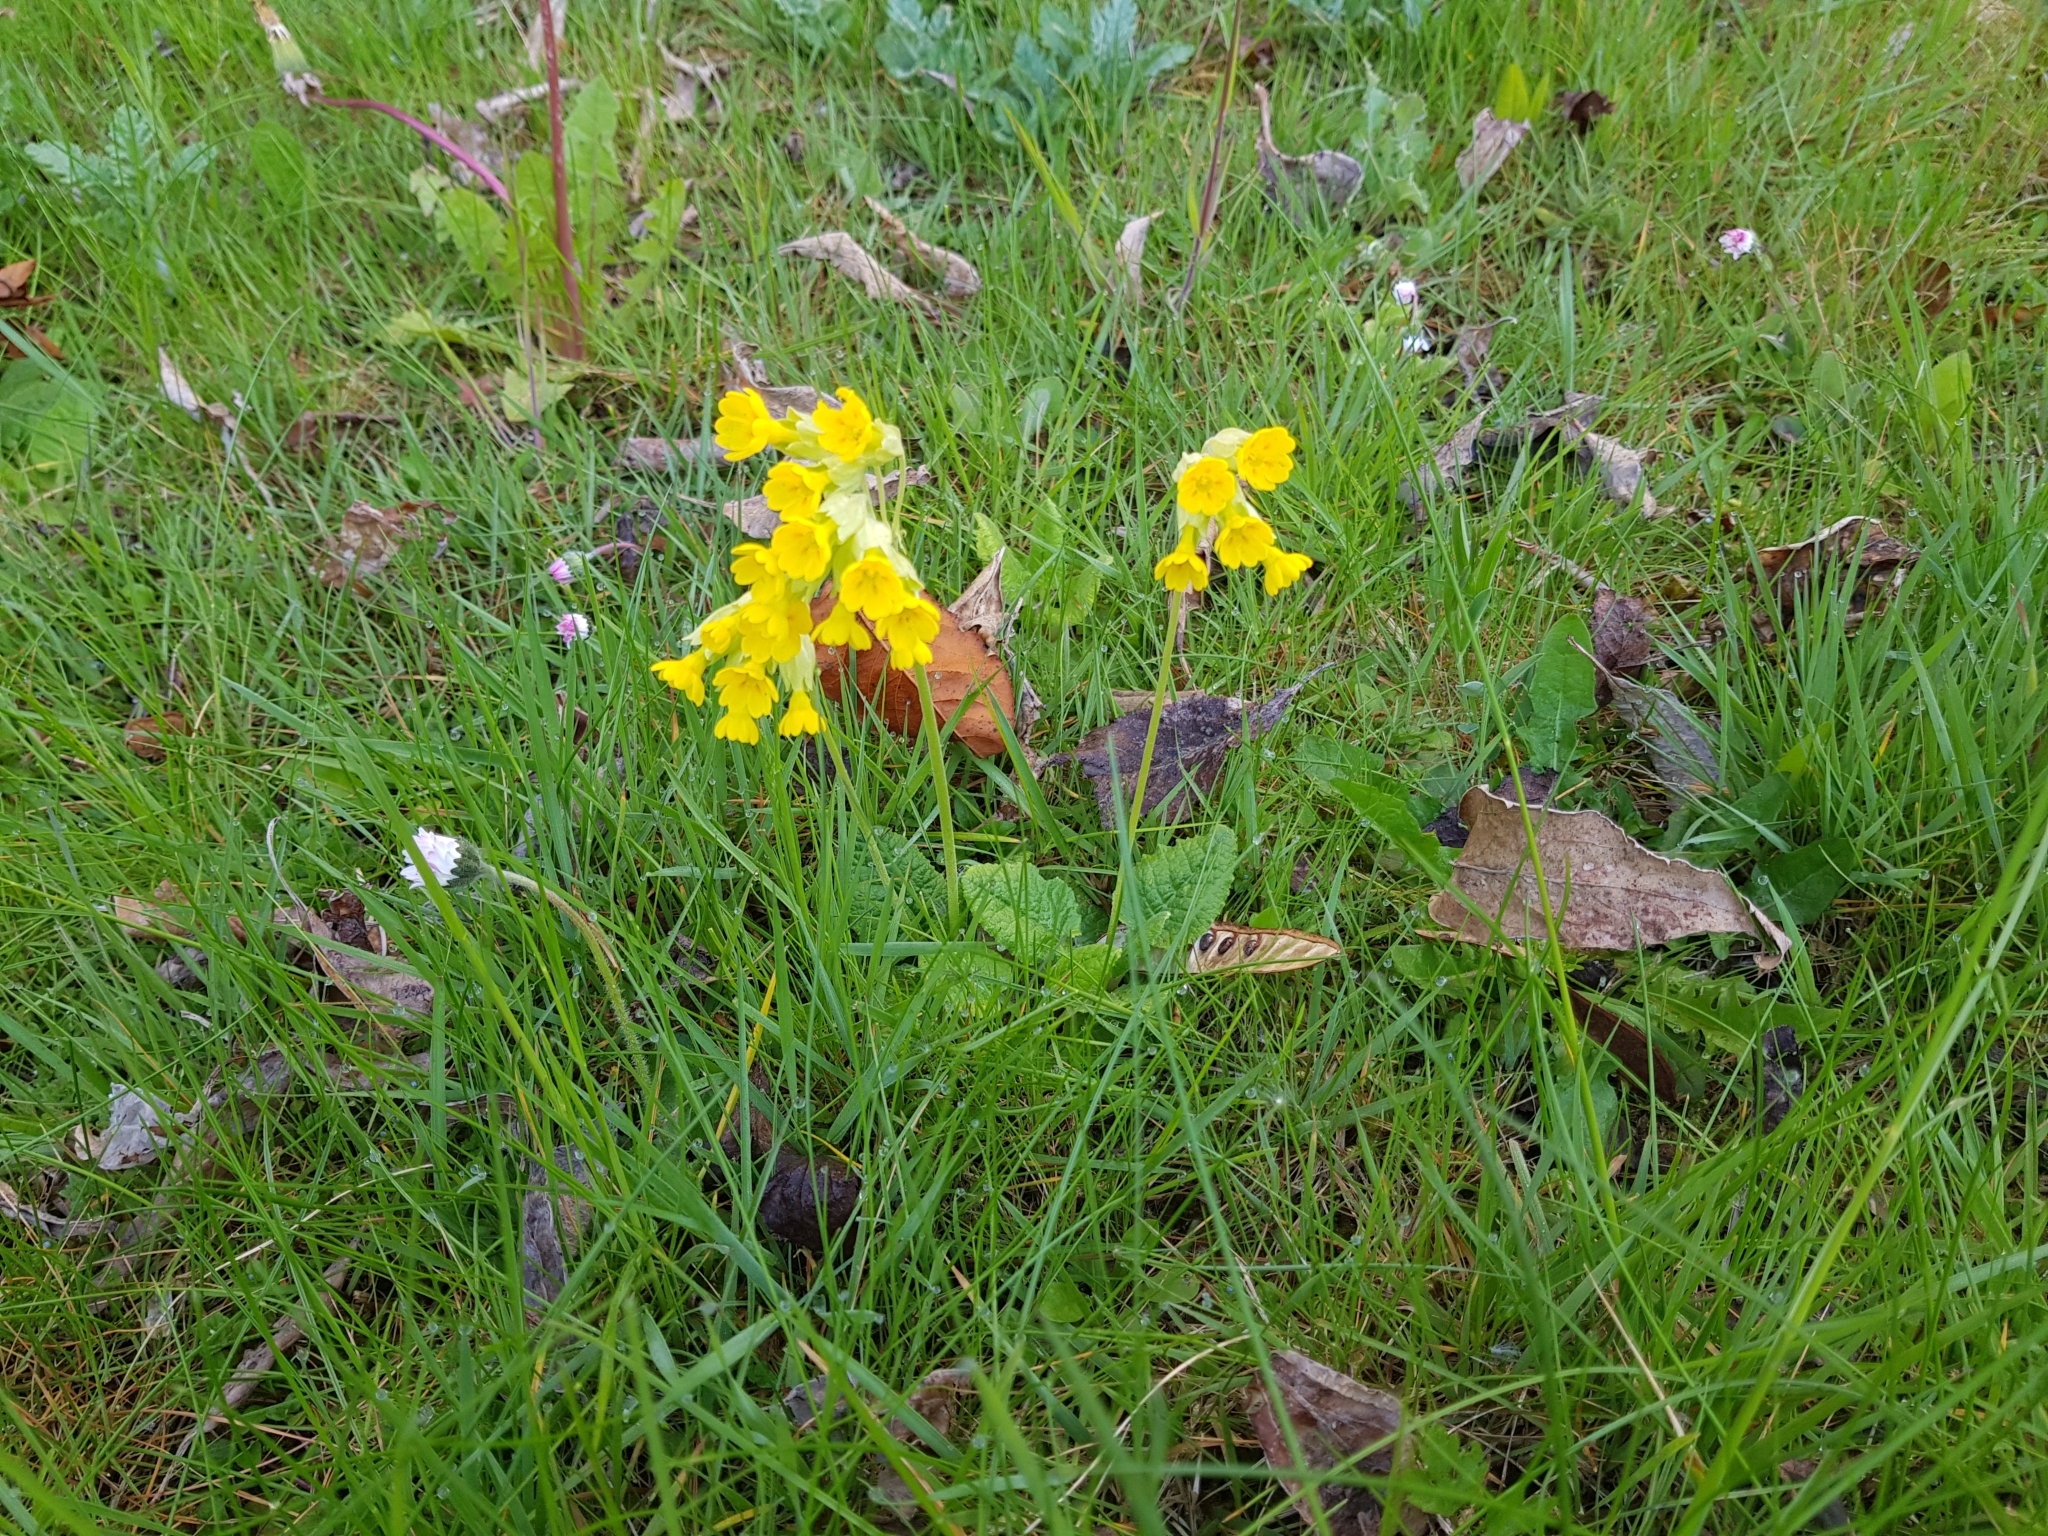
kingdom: Plantae
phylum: Tracheophyta
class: Magnoliopsida
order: Ericales
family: Primulaceae
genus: Primula
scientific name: Primula veris
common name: Cowslip
